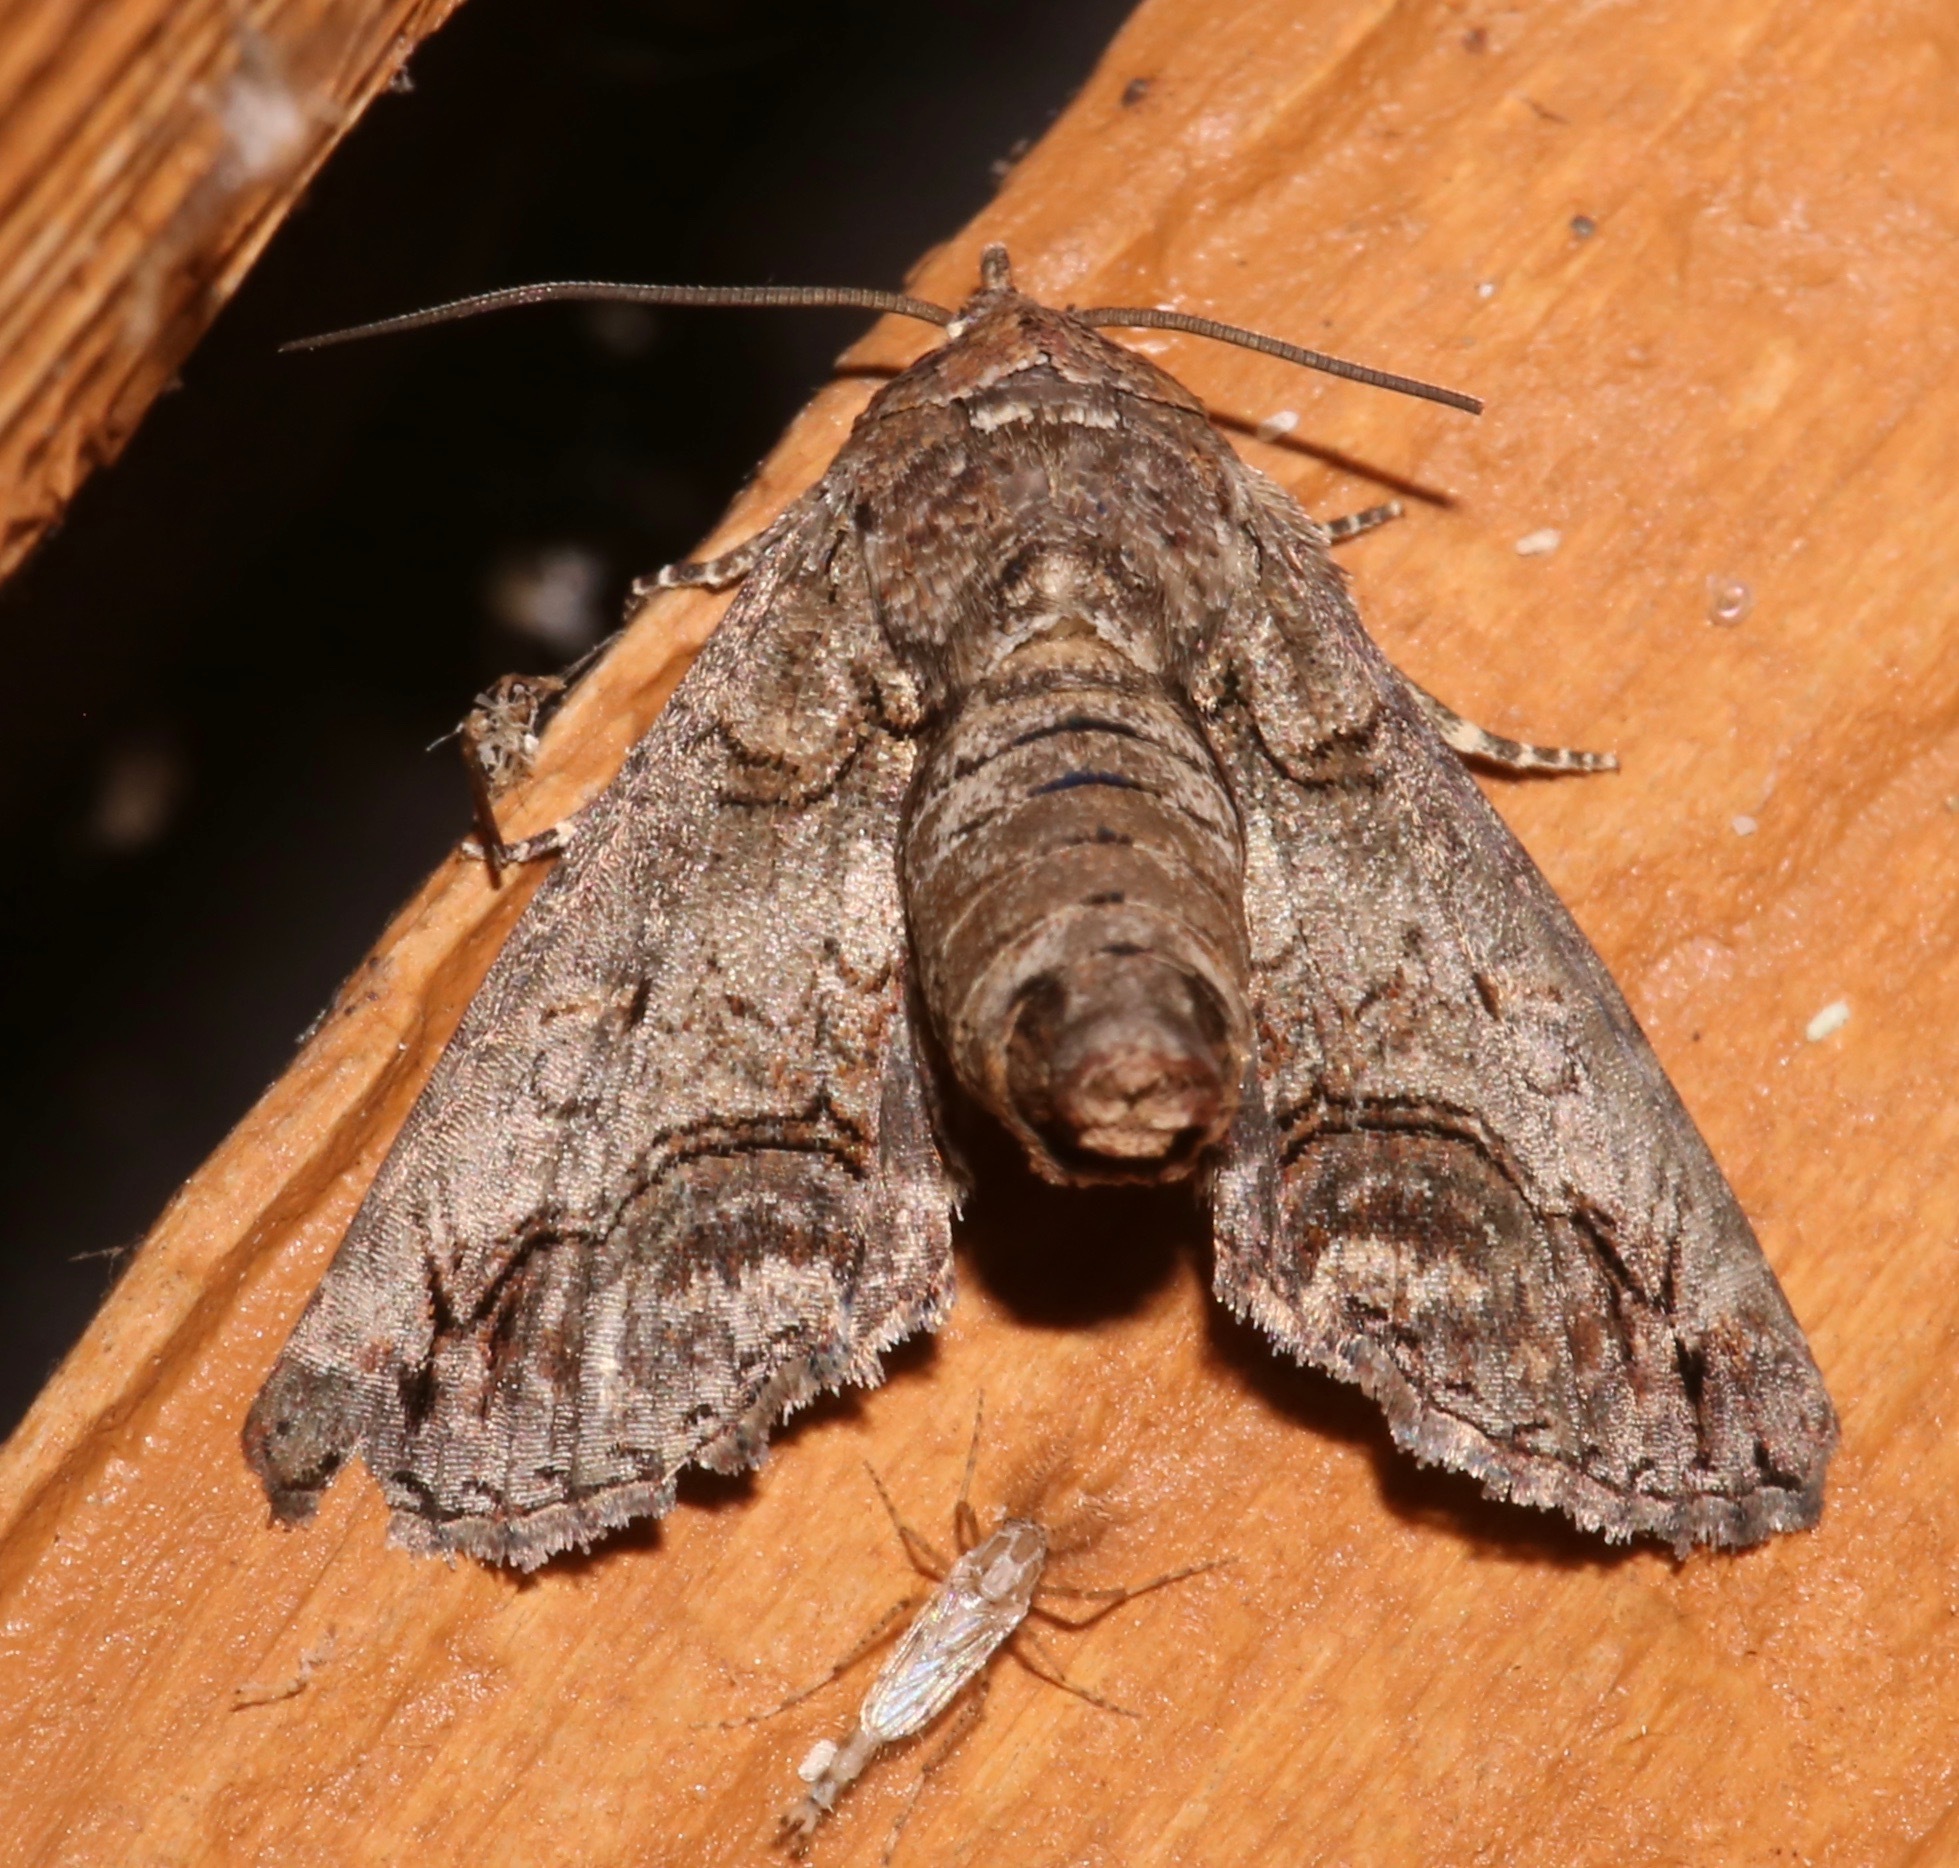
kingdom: Animalia
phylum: Arthropoda
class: Insecta
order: Lepidoptera
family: Euteliidae
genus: Paectes
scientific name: Paectes abrostoloides
